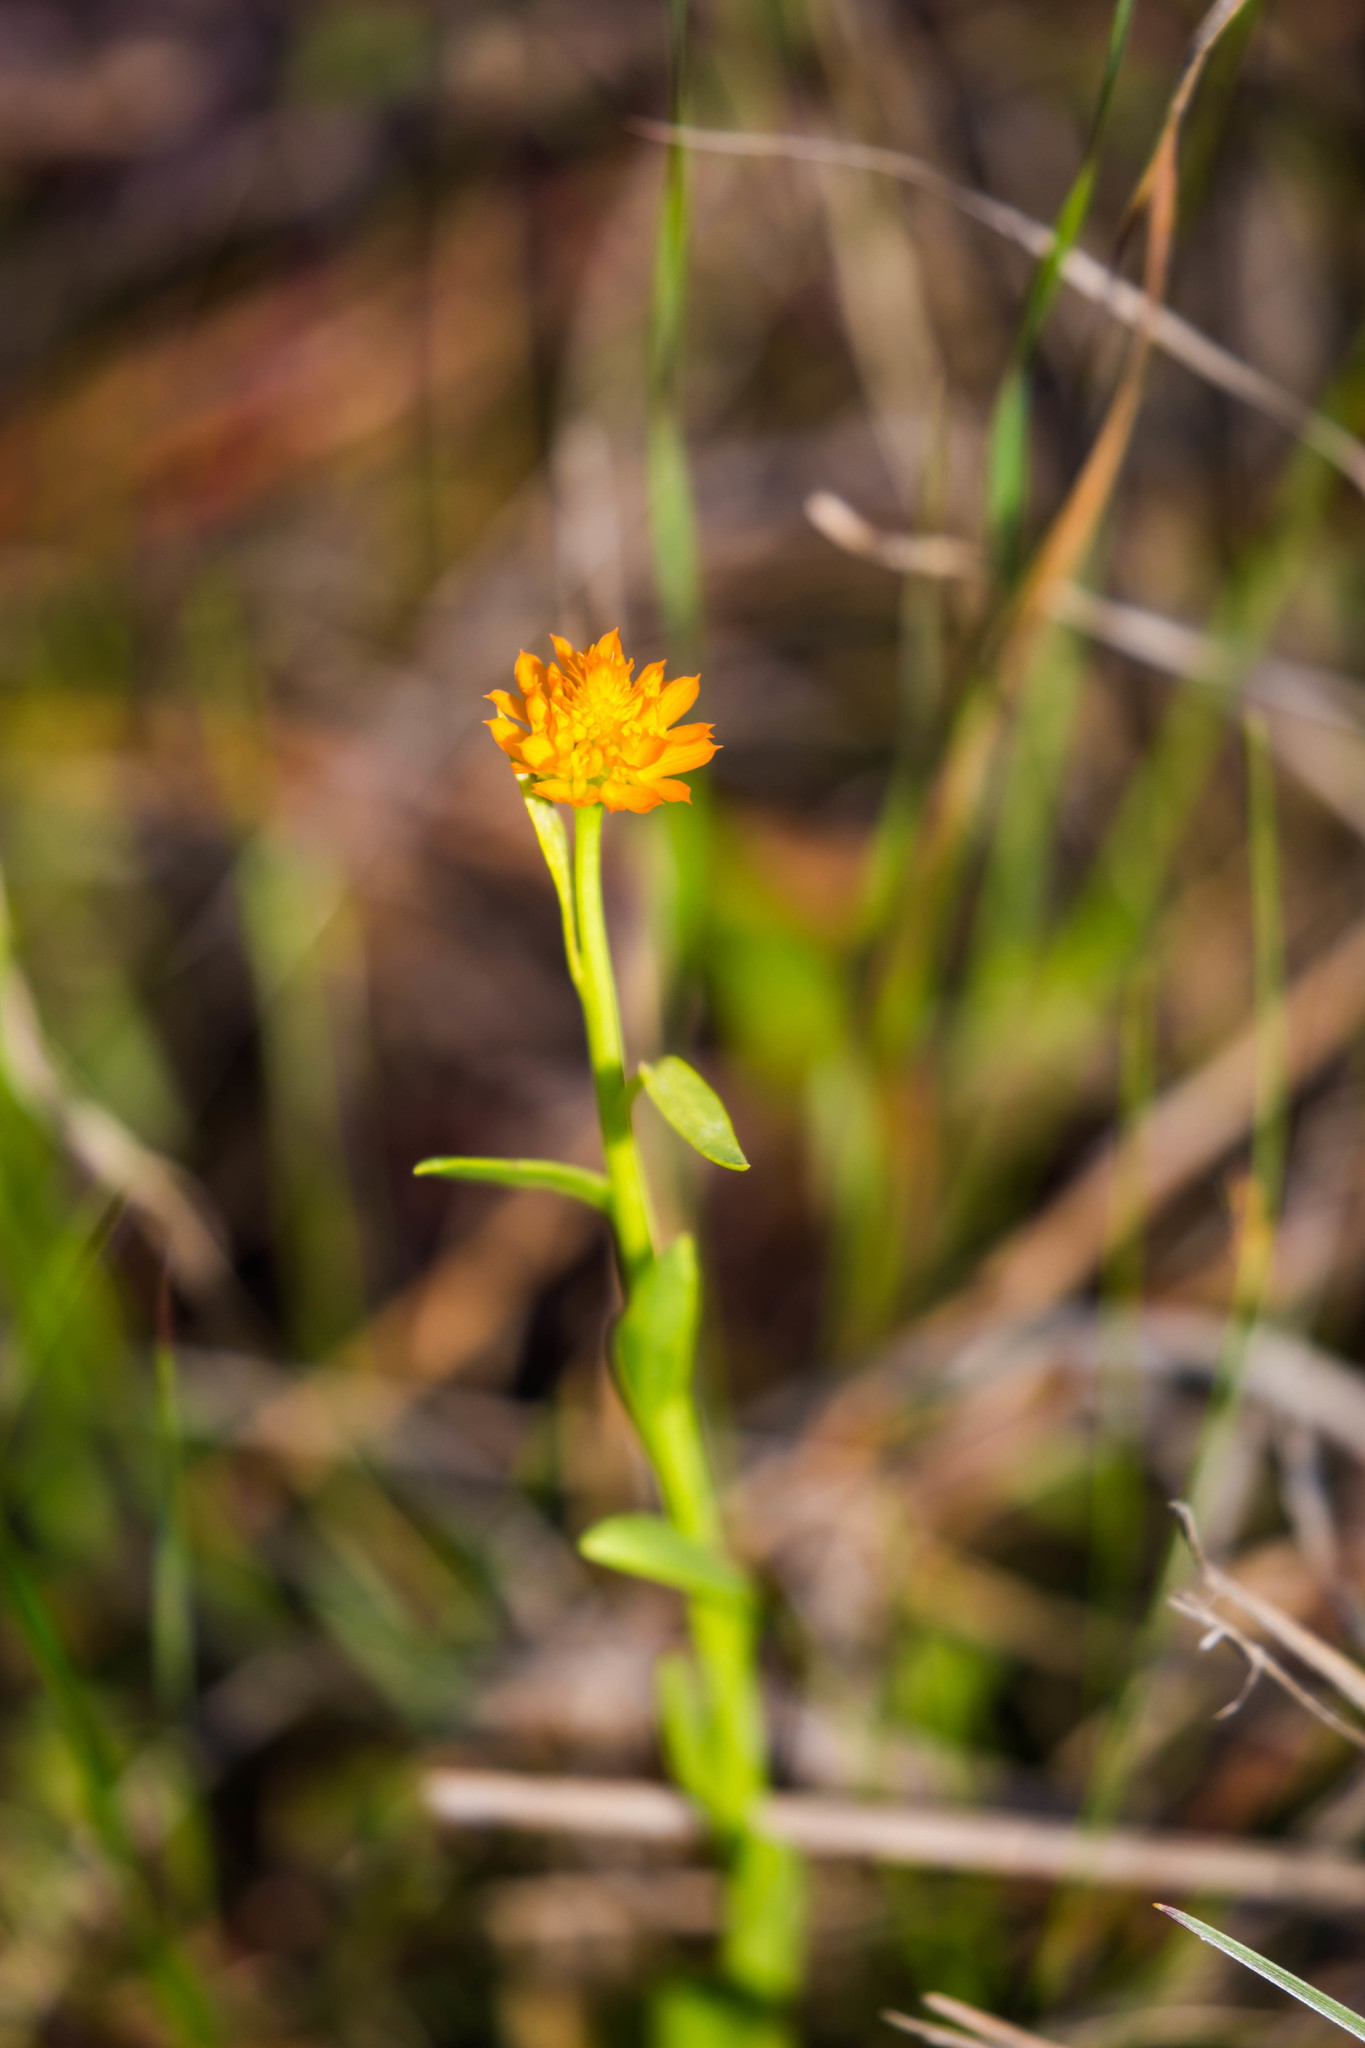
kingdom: Plantae
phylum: Tracheophyta
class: Magnoliopsida
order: Fabales
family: Polygalaceae
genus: Polygala
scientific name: Polygala lutea
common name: Orange milkwort
